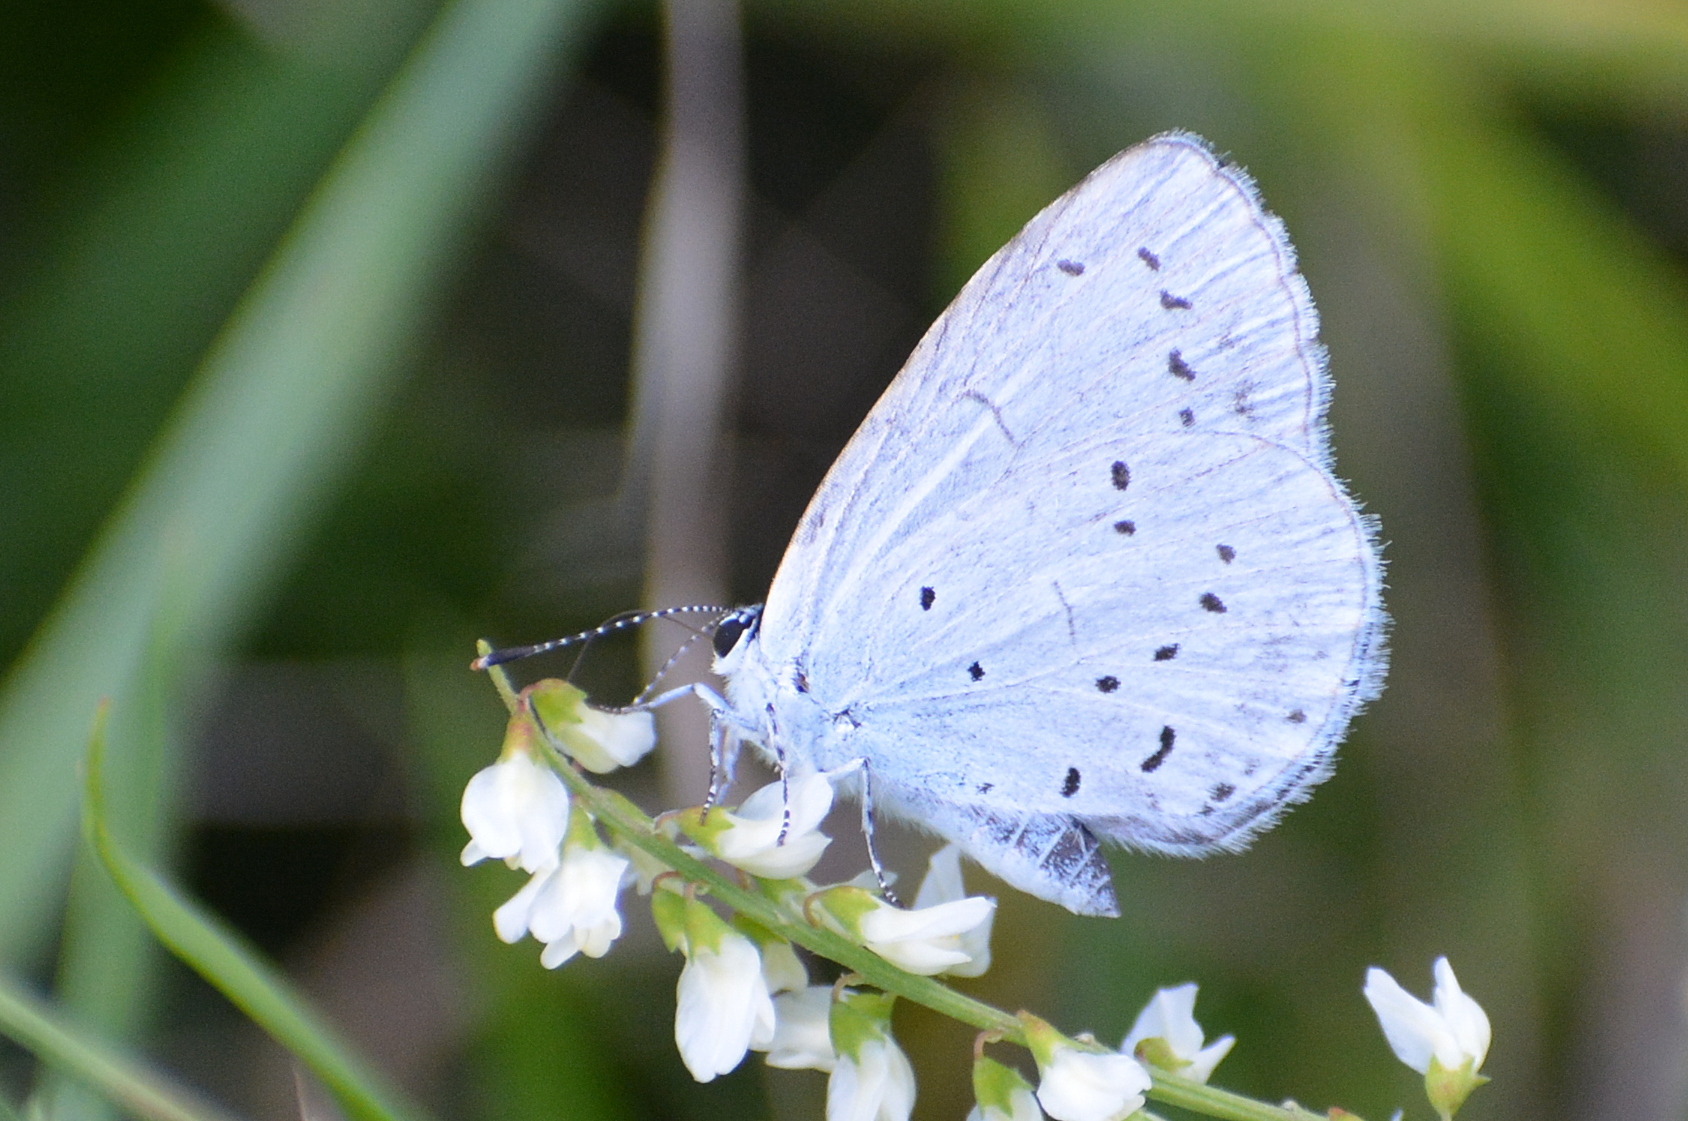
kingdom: Animalia
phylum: Arthropoda
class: Insecta
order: Lepidoptera
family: Lycaenidae
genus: Celastrina
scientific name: Celastrina argiolus
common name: Holly blue
